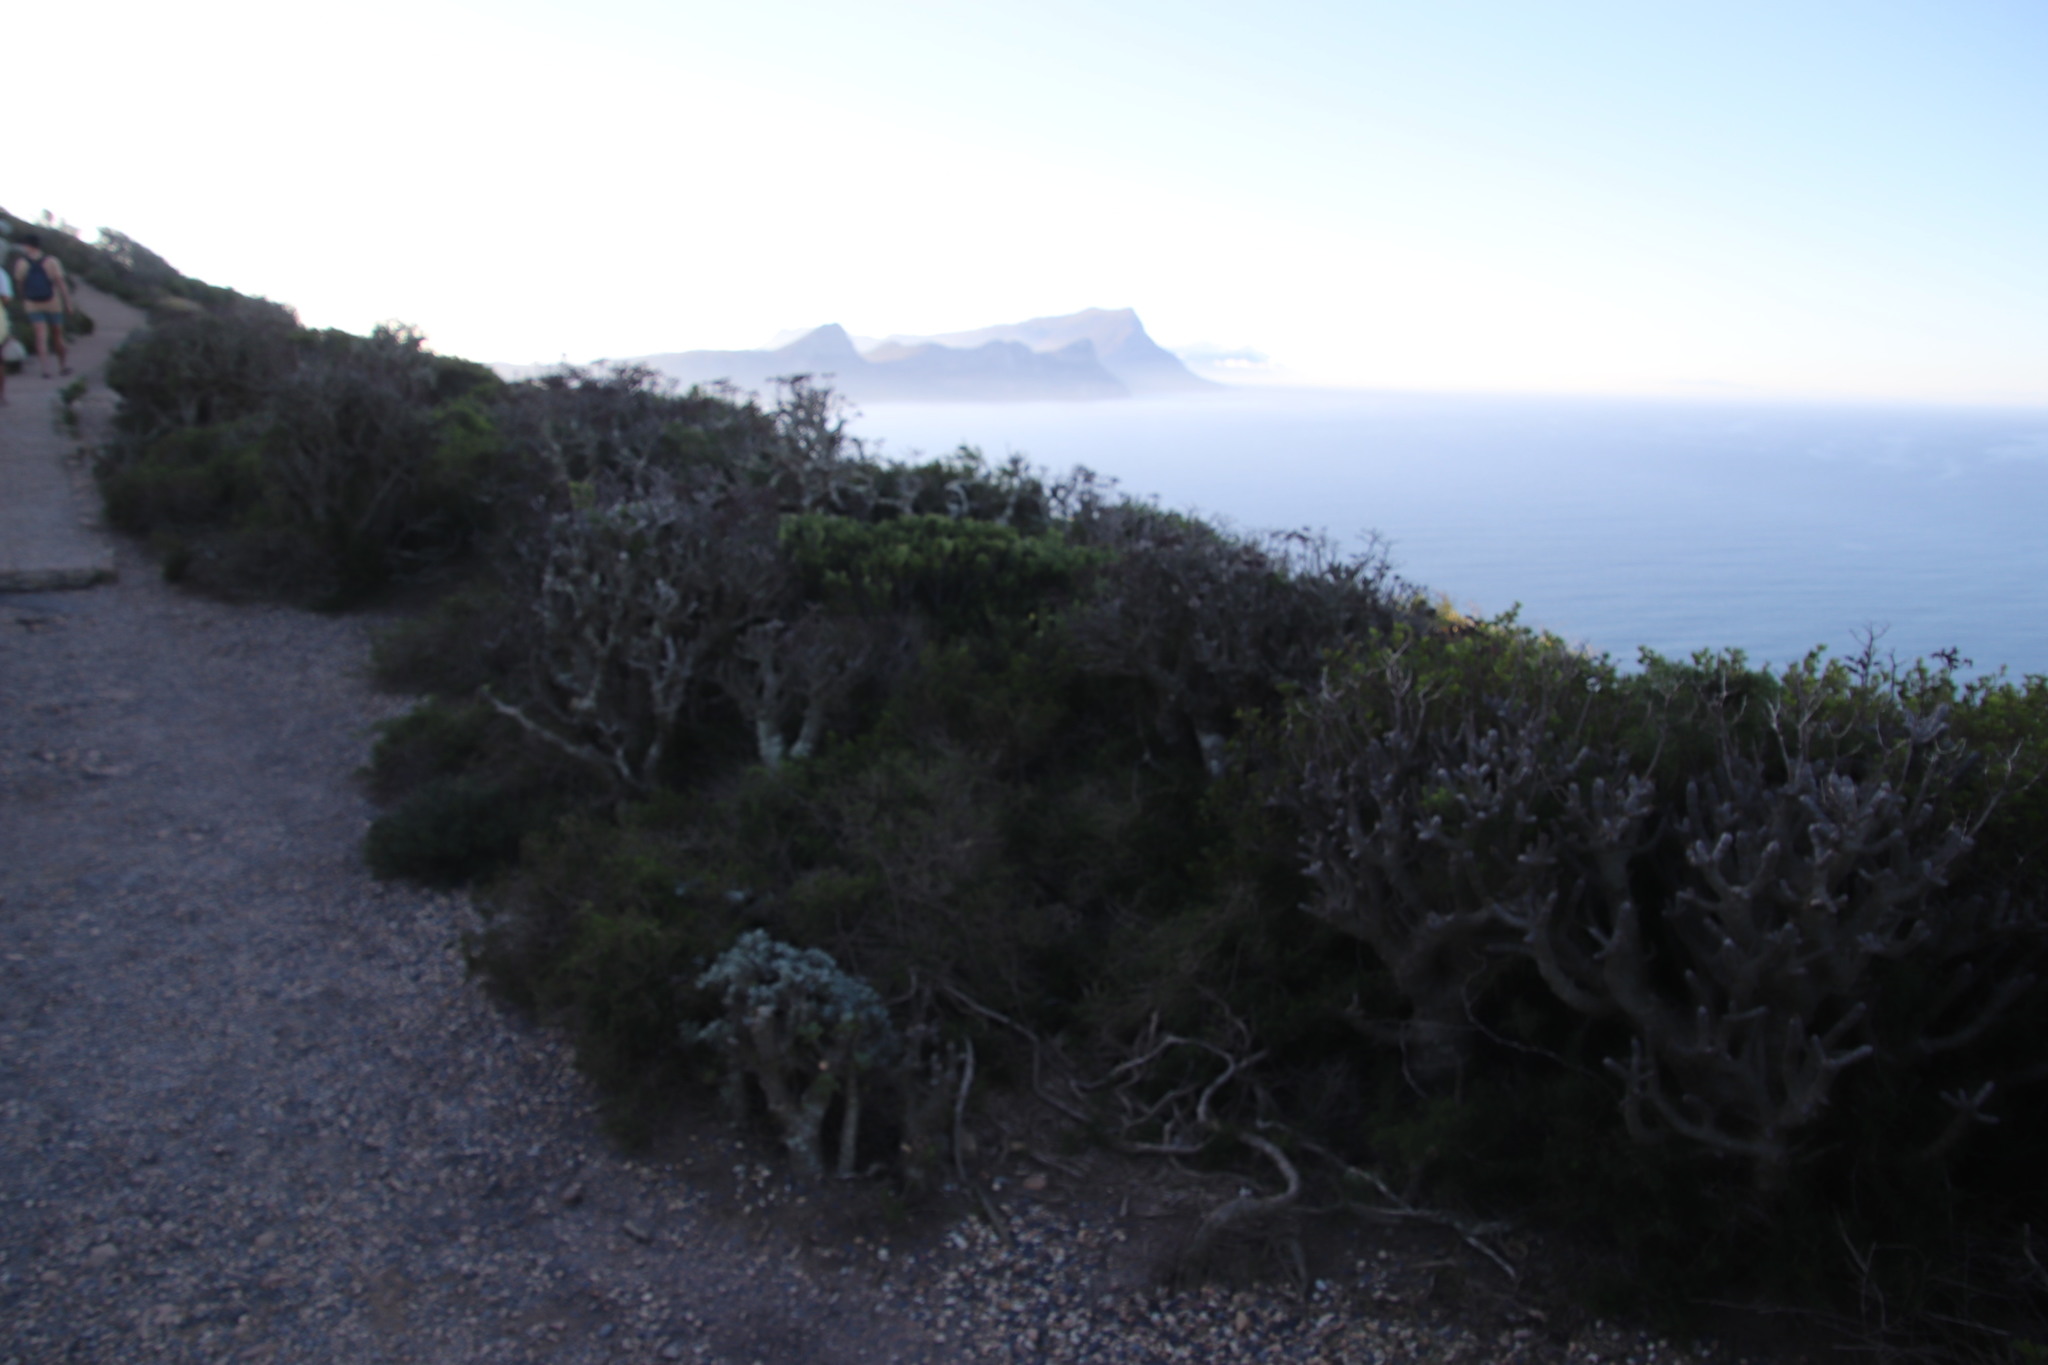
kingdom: Plantae
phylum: Tracheophyta
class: Magnoliopsida
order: Saxifragales
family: Crassulaceae
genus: Tylecodon
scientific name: Tylecodon paniculatus
